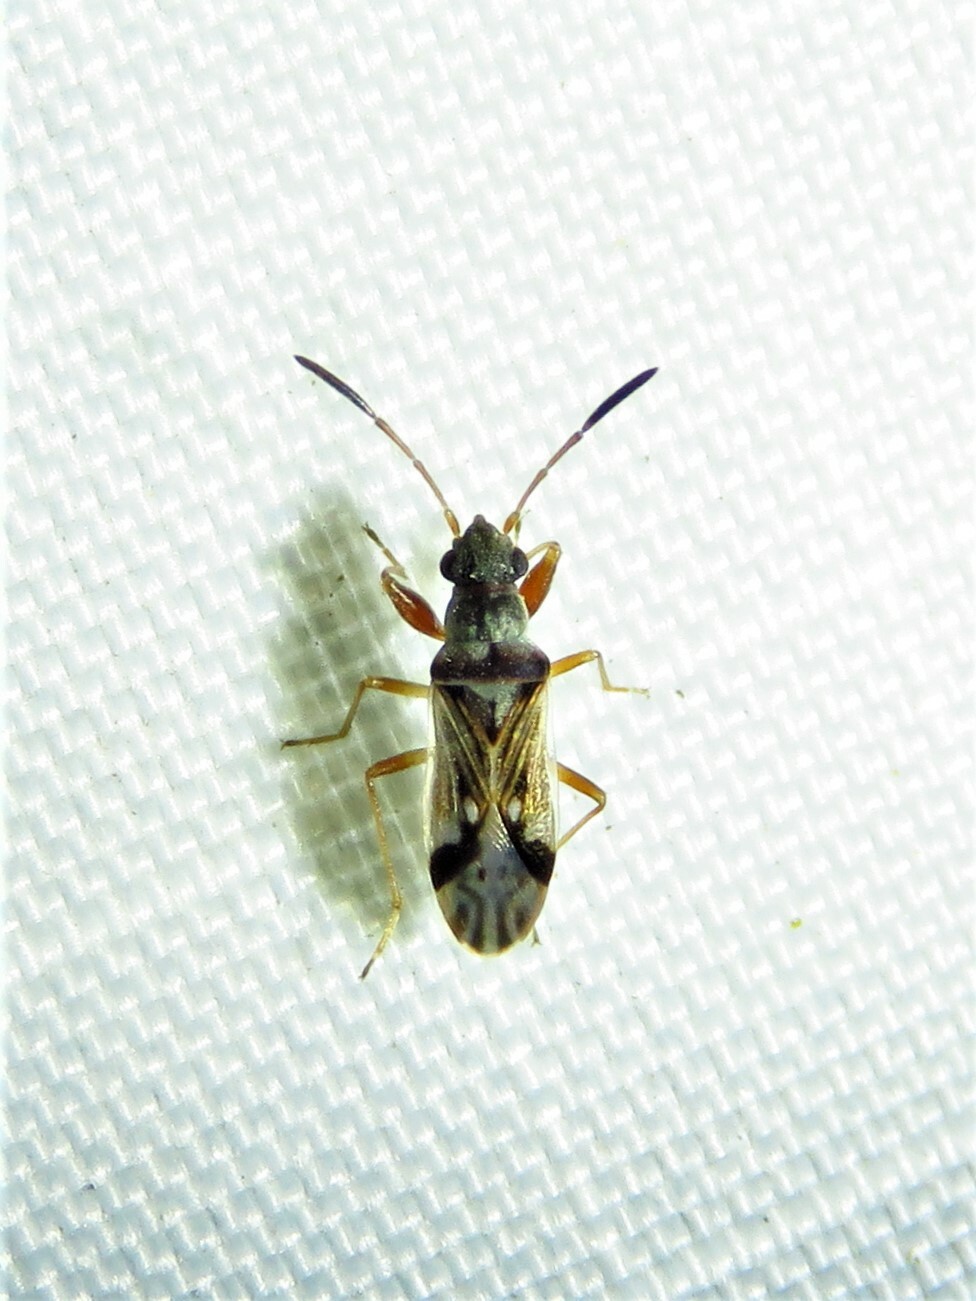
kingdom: Animalia
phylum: Arthropoda
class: Insecta
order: Hemiptera
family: Rhyparochromidae
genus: Pseudopachybrachius
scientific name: Pseudopachybrachius vinctus
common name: Dirt-colored seed bug
